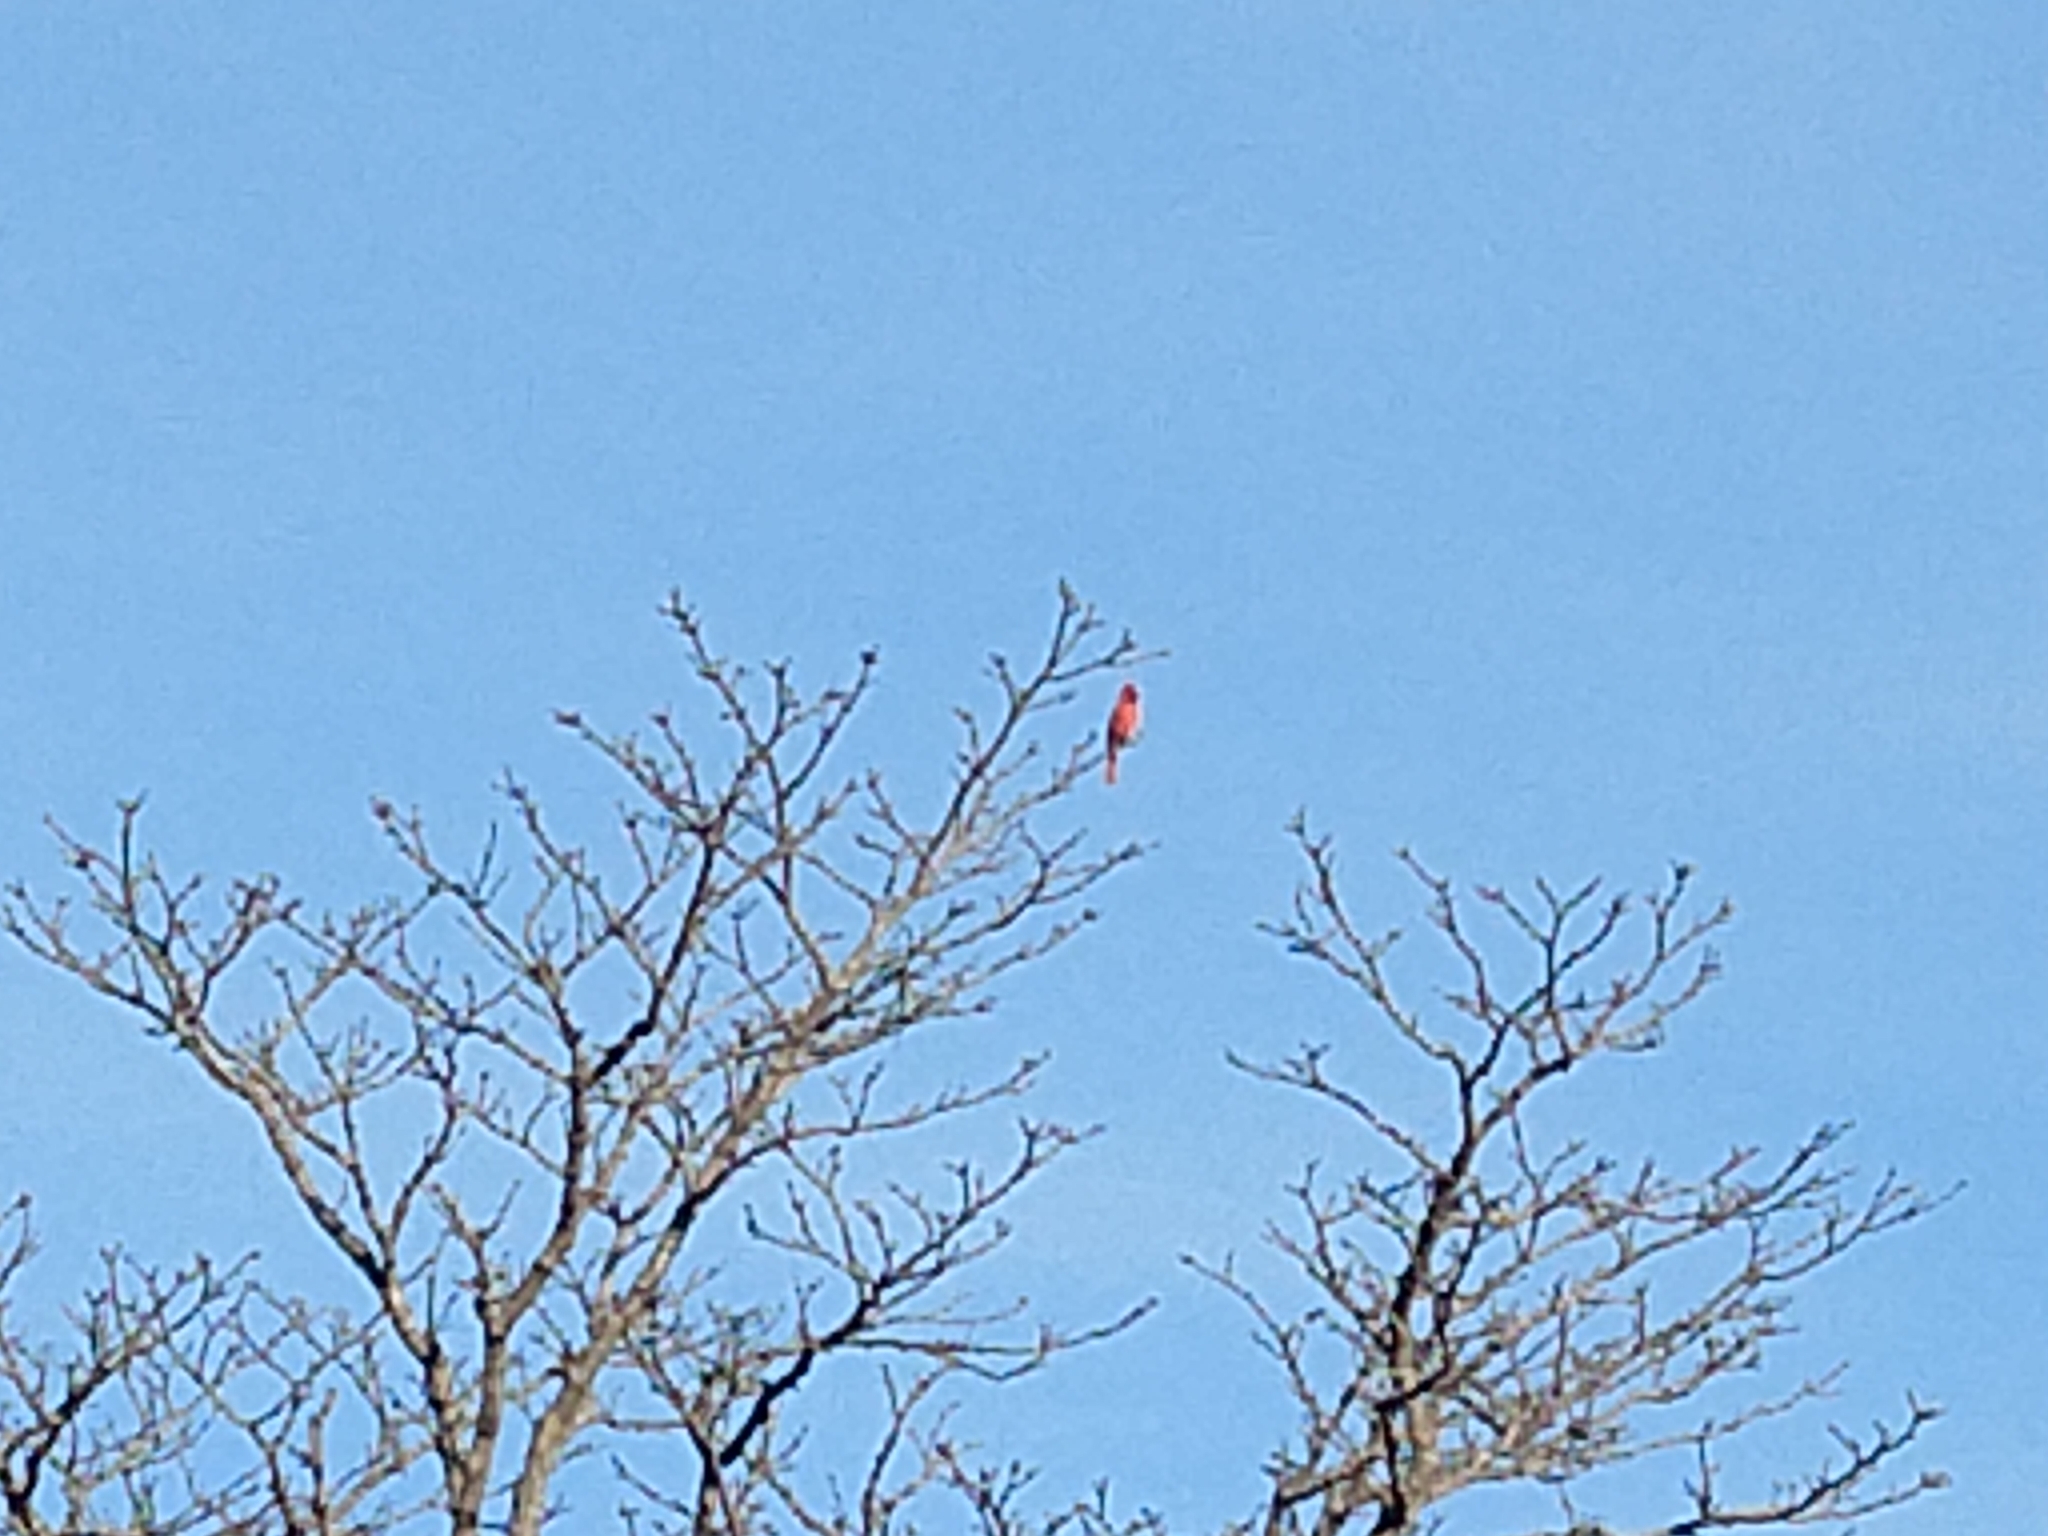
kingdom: Animalia
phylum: Chordata
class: Aves
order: Passeriformes
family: Cardinalidae
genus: Cardinalis
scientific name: Cardinalis cardinalis
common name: Northern cardinal
